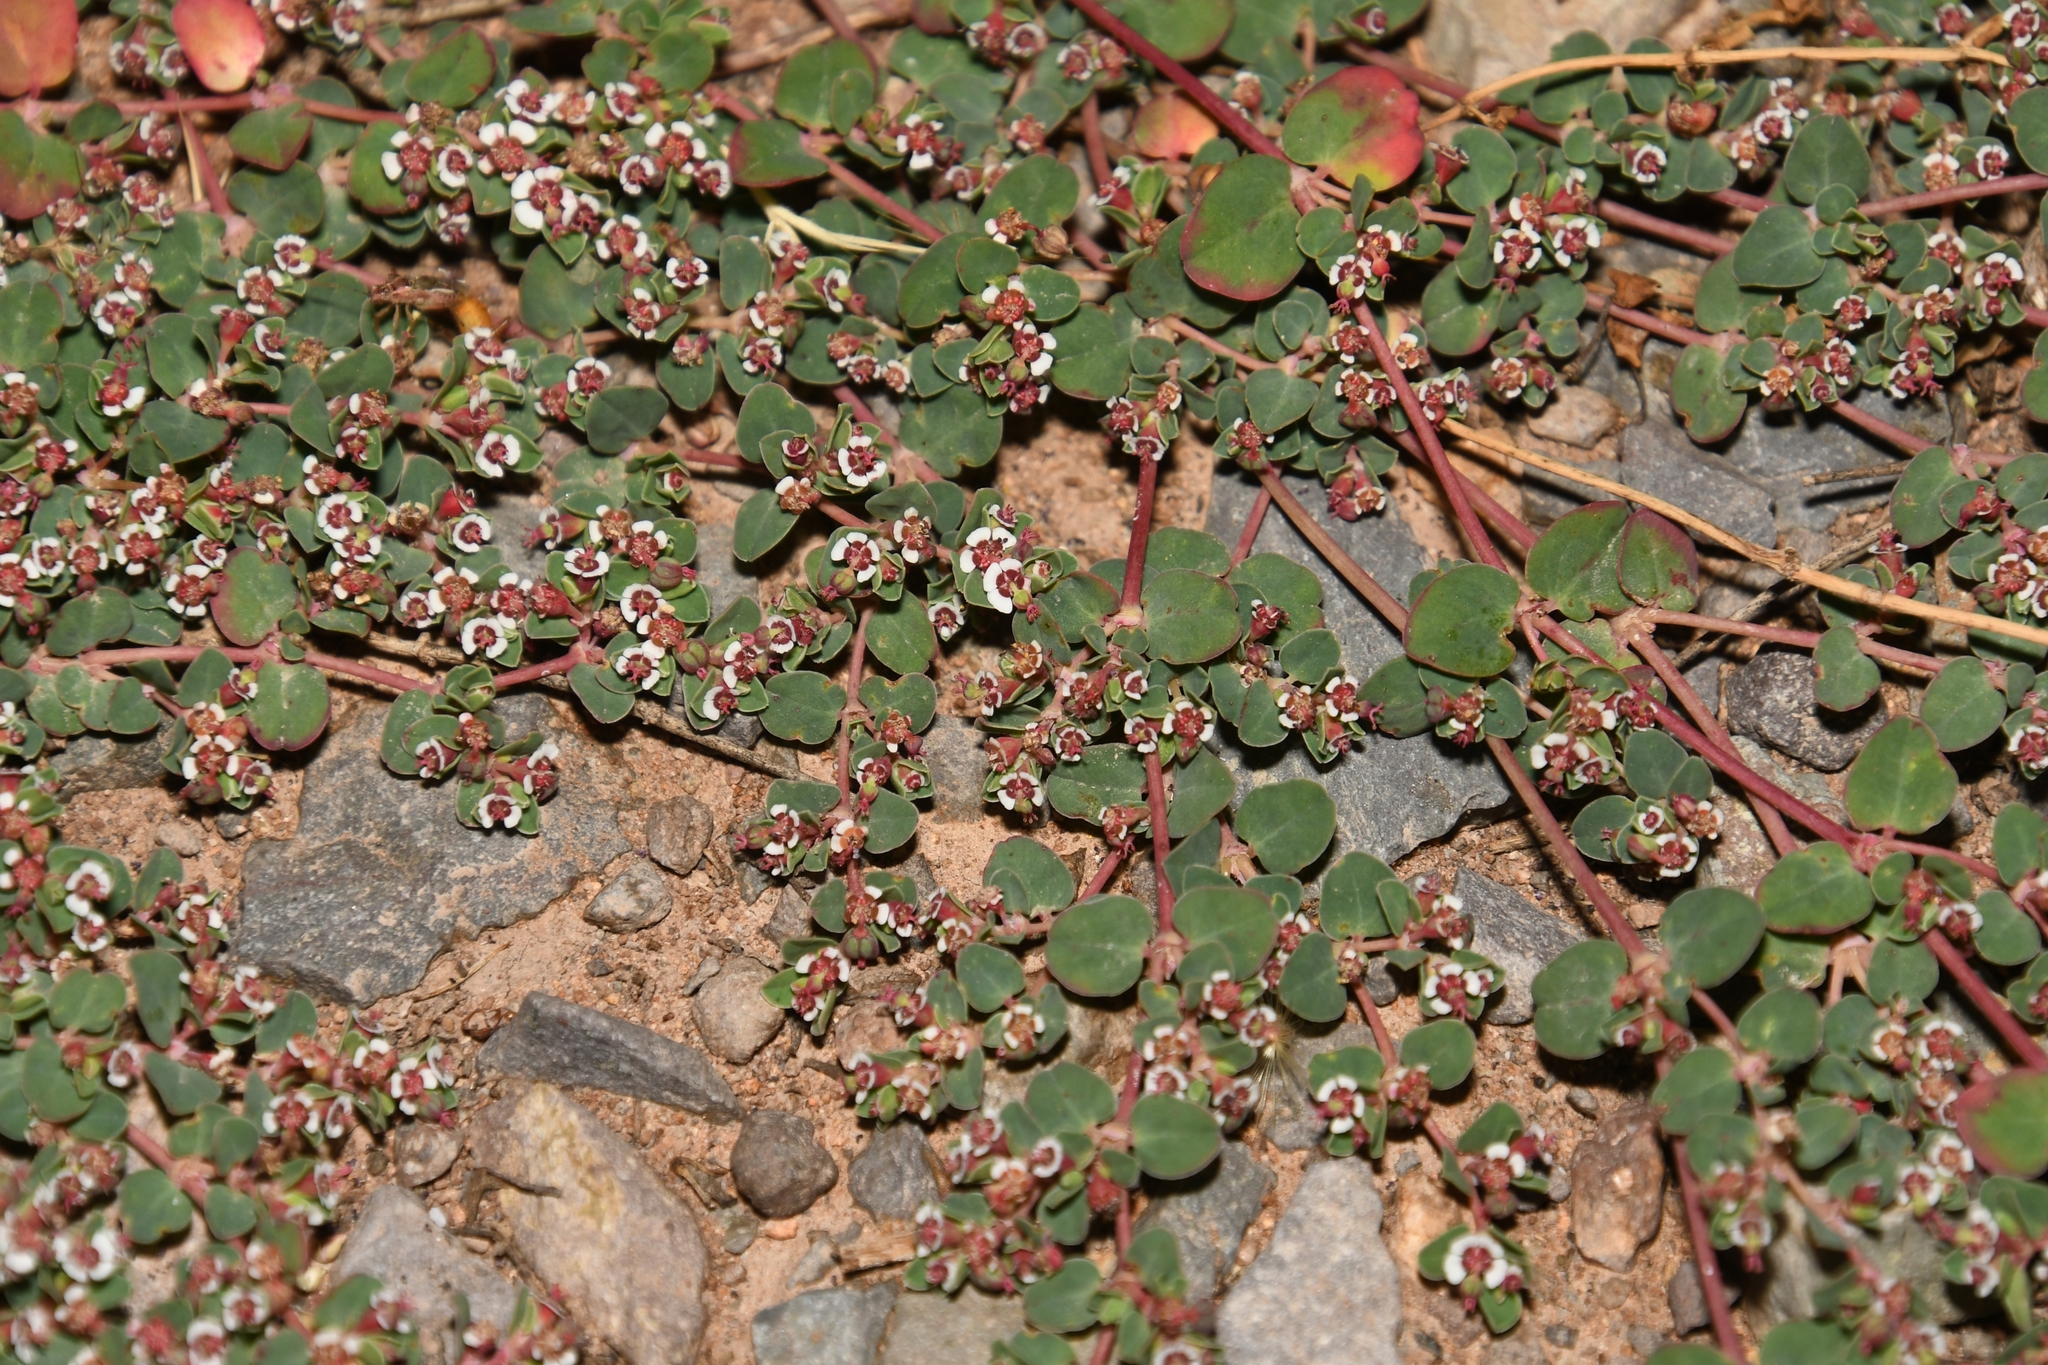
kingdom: Plantae
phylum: Tracheophyta
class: Magnoliopsida
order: Malpighiales
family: Euphorbiaceae
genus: Euphorbia
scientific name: Euphorbia albomarginata
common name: Whitemargin sandmat
